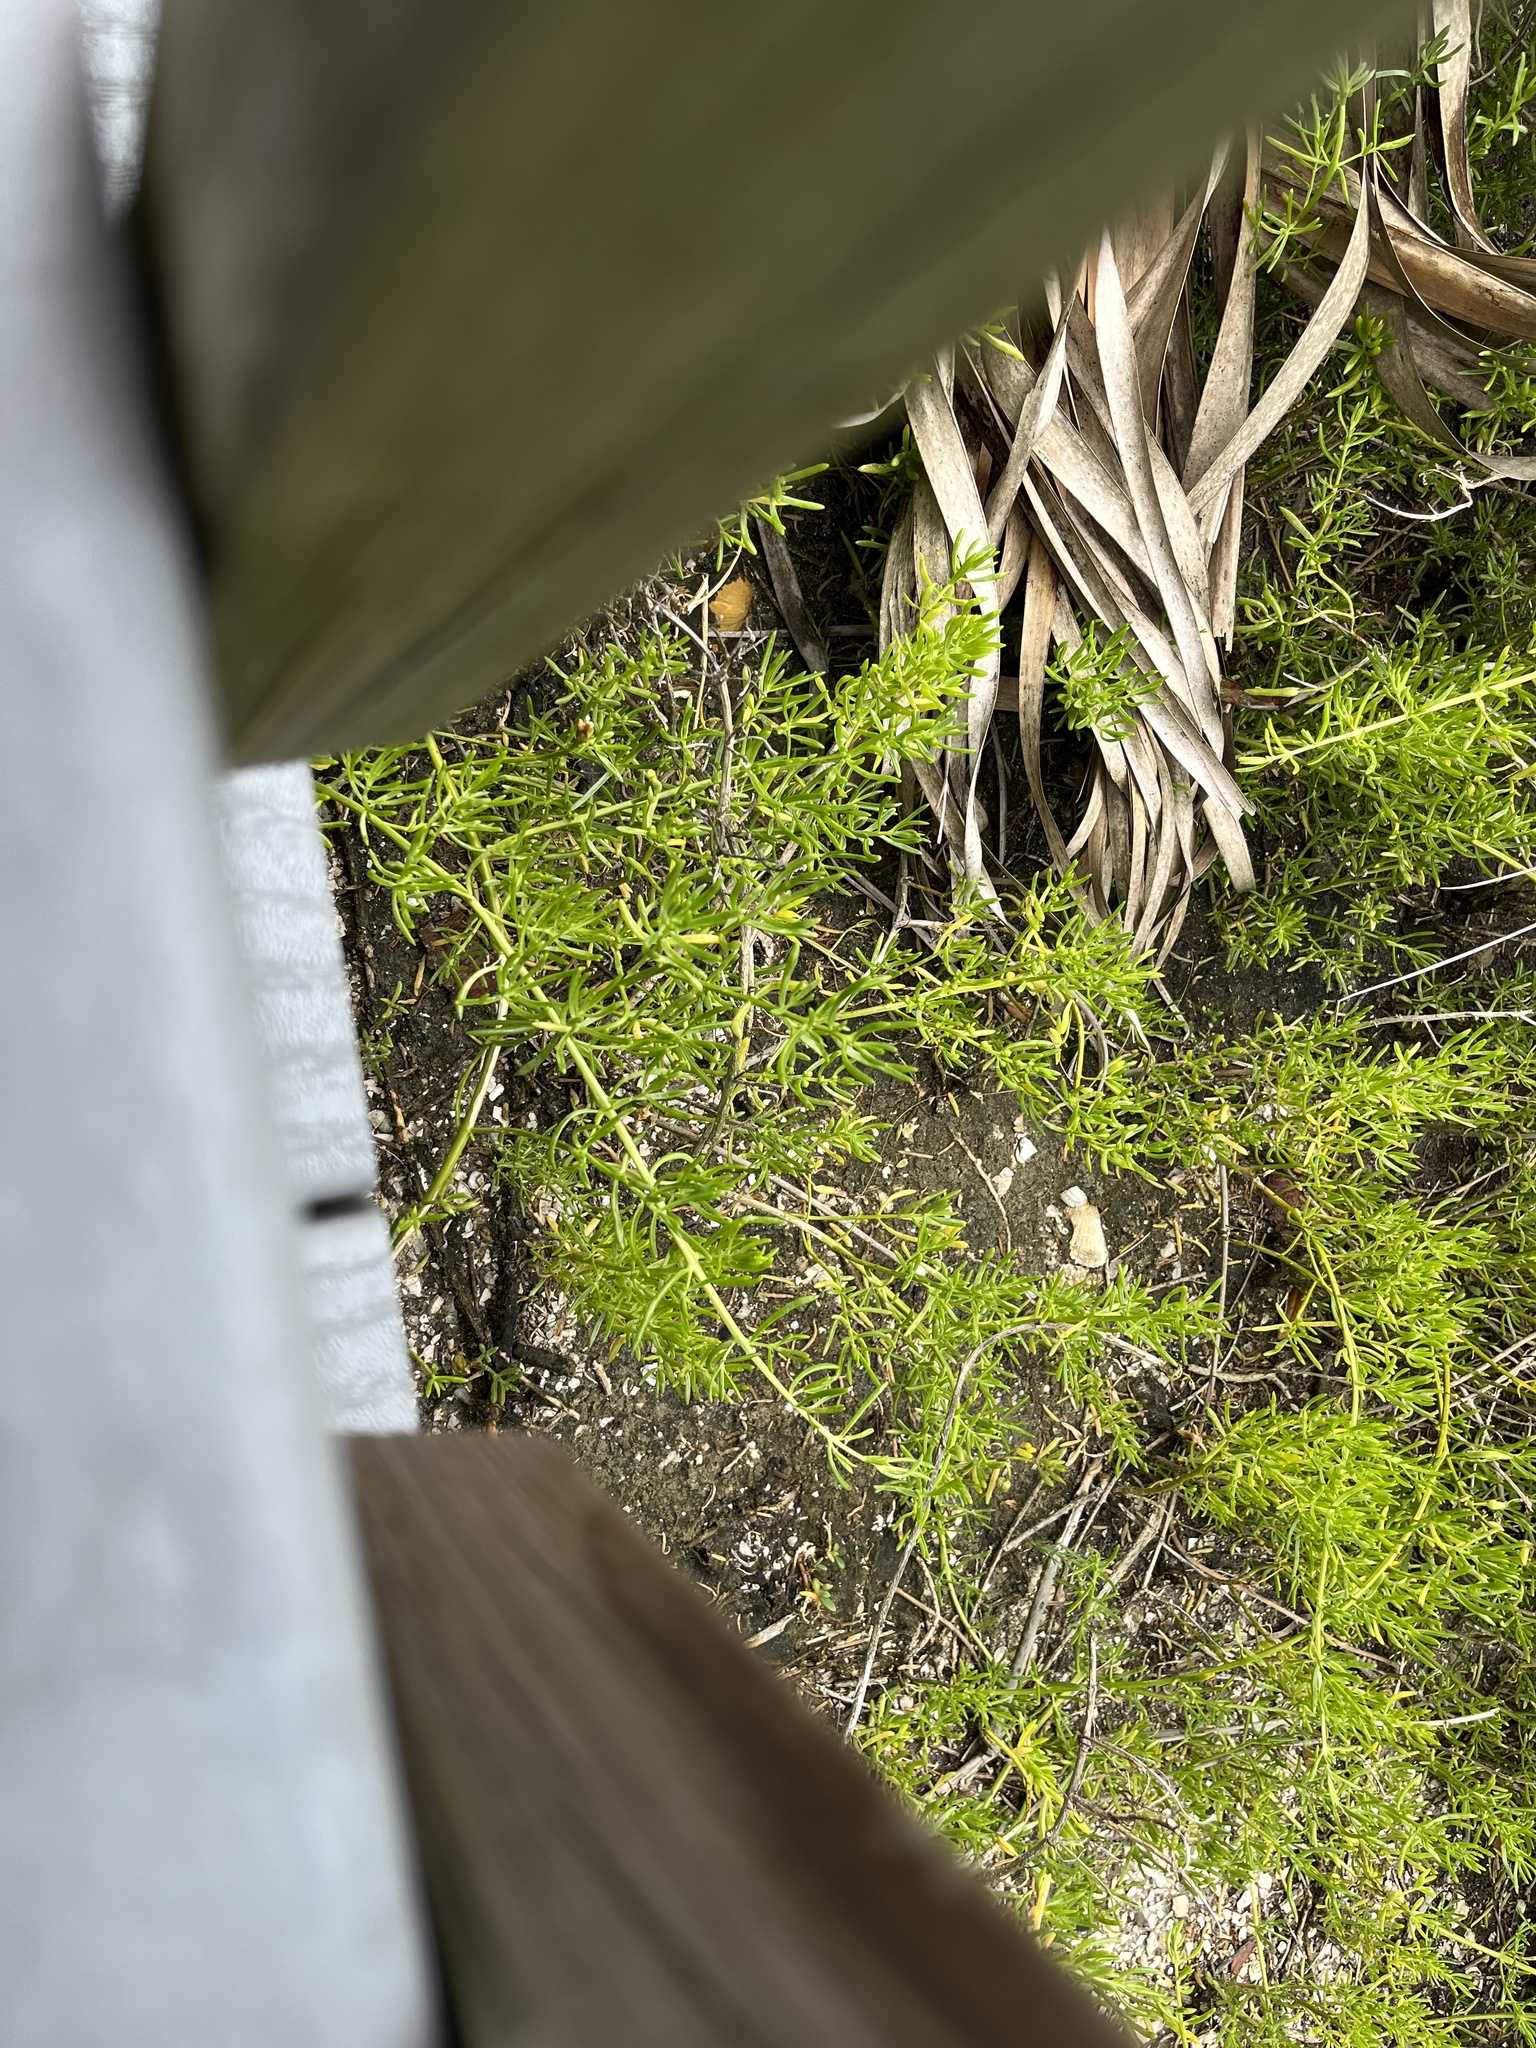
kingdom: Plantae
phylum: Tracheophyta
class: Magnoliopsida
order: Brassicales
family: Bataceae
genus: Batis
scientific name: Batis maritima
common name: Turtleweed
